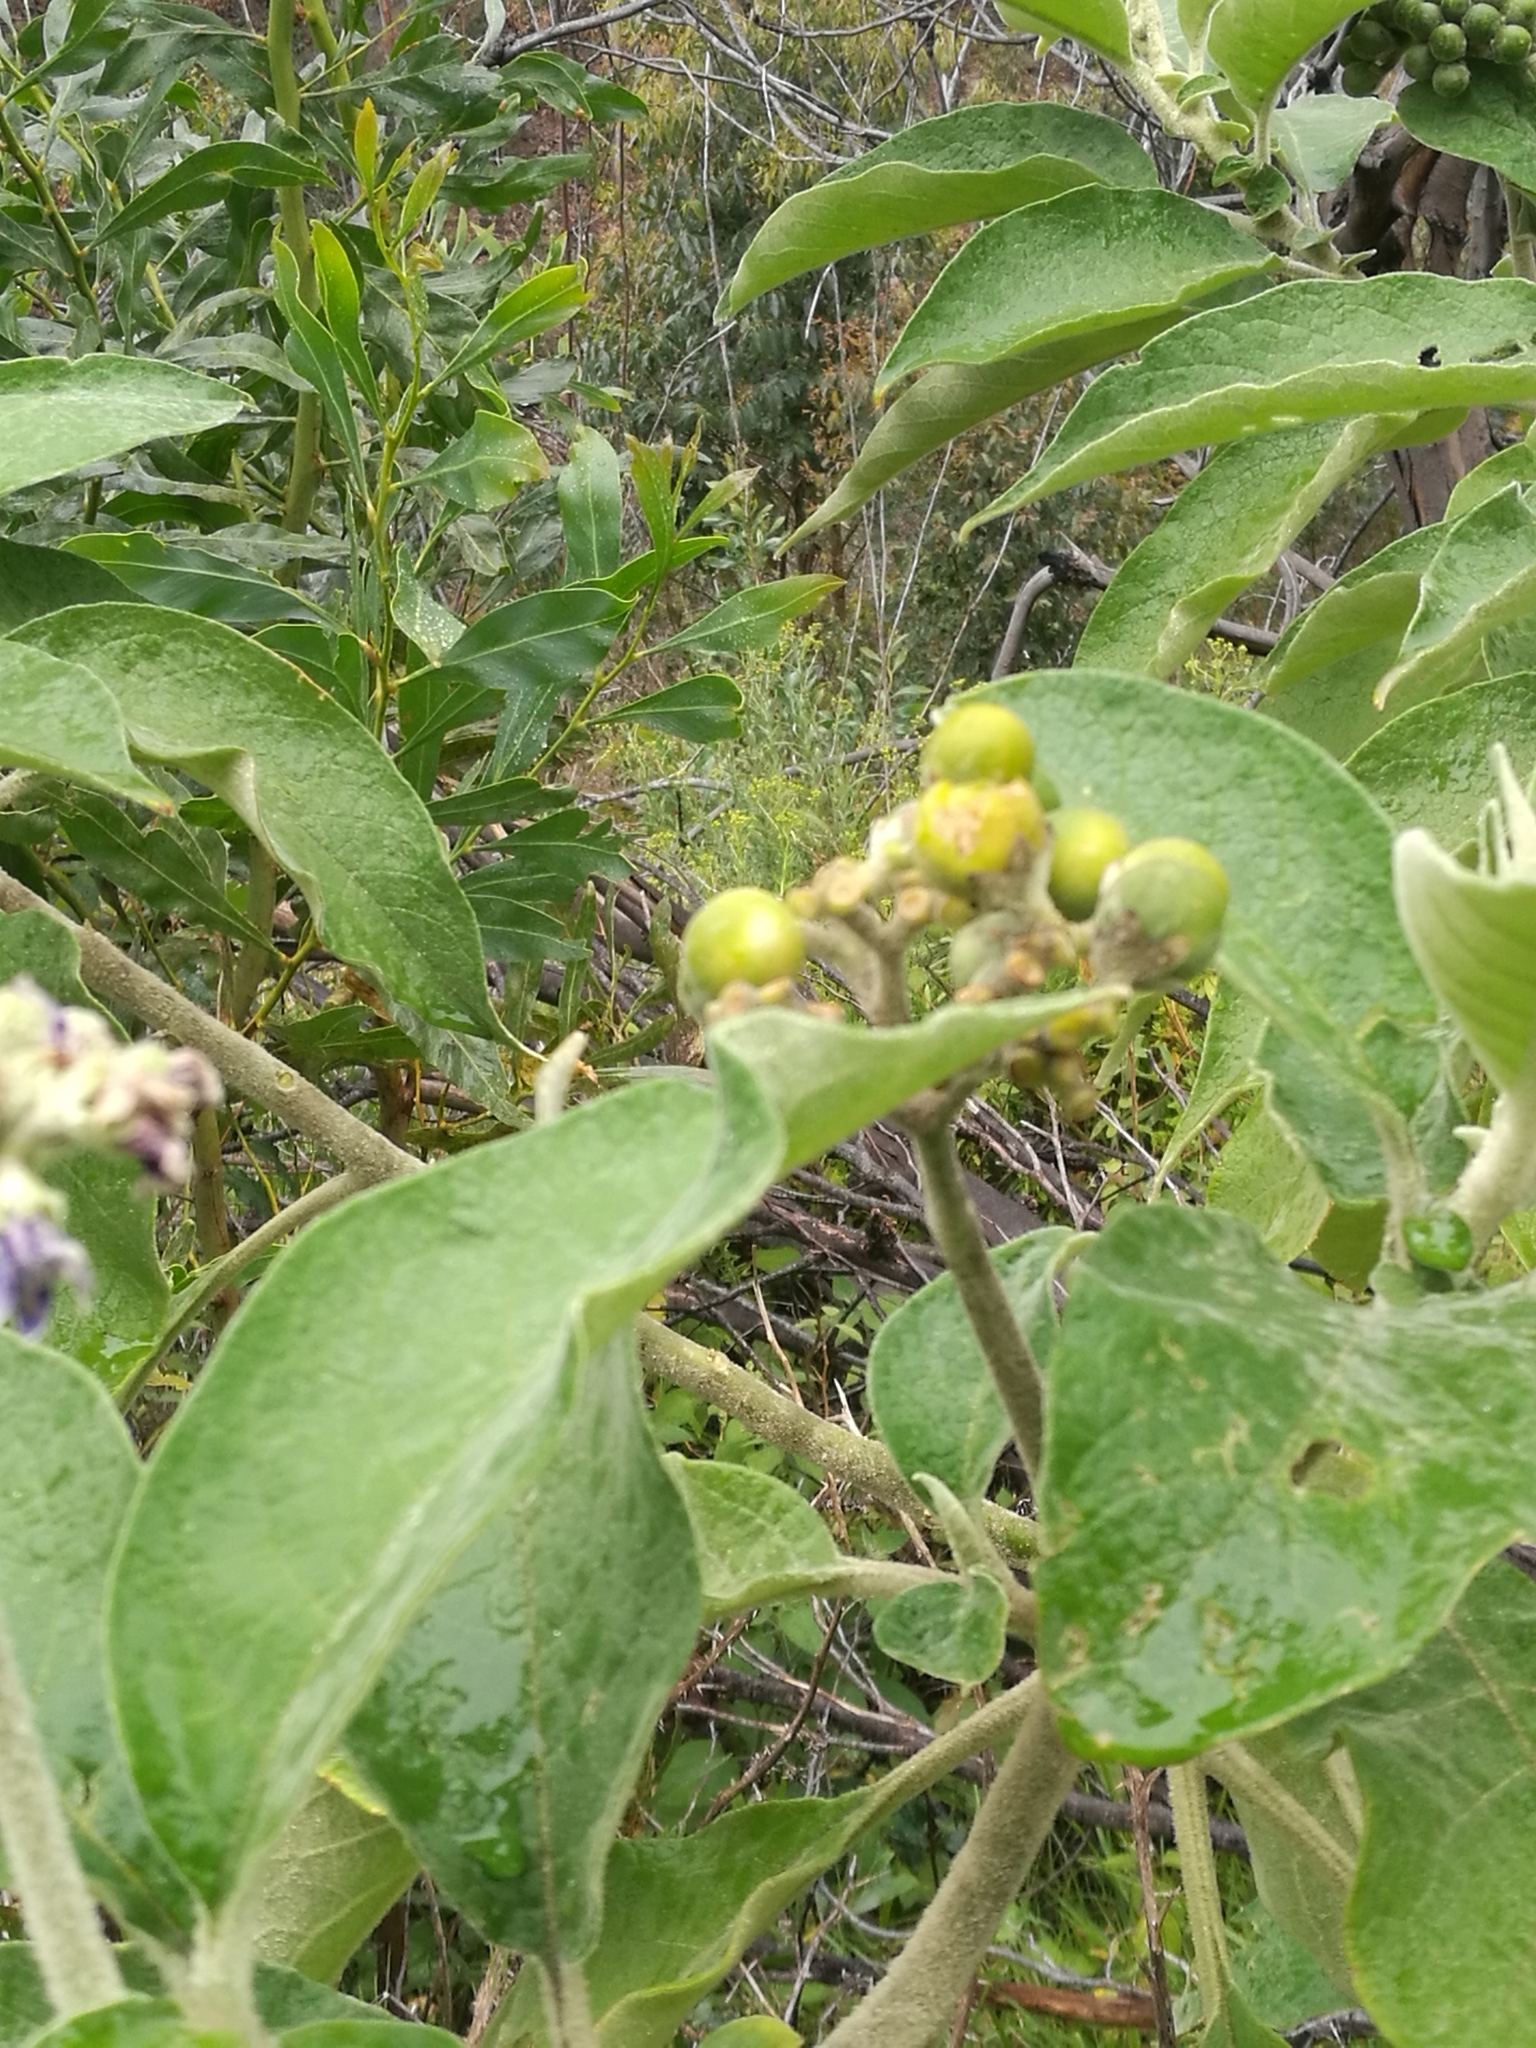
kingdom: Plantae
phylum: Tracheophyta
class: Magnoliopsida
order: Solanales
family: Solanaceae
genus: Solanum
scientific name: Solanum mauritianum
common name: Earleaf nightshade
